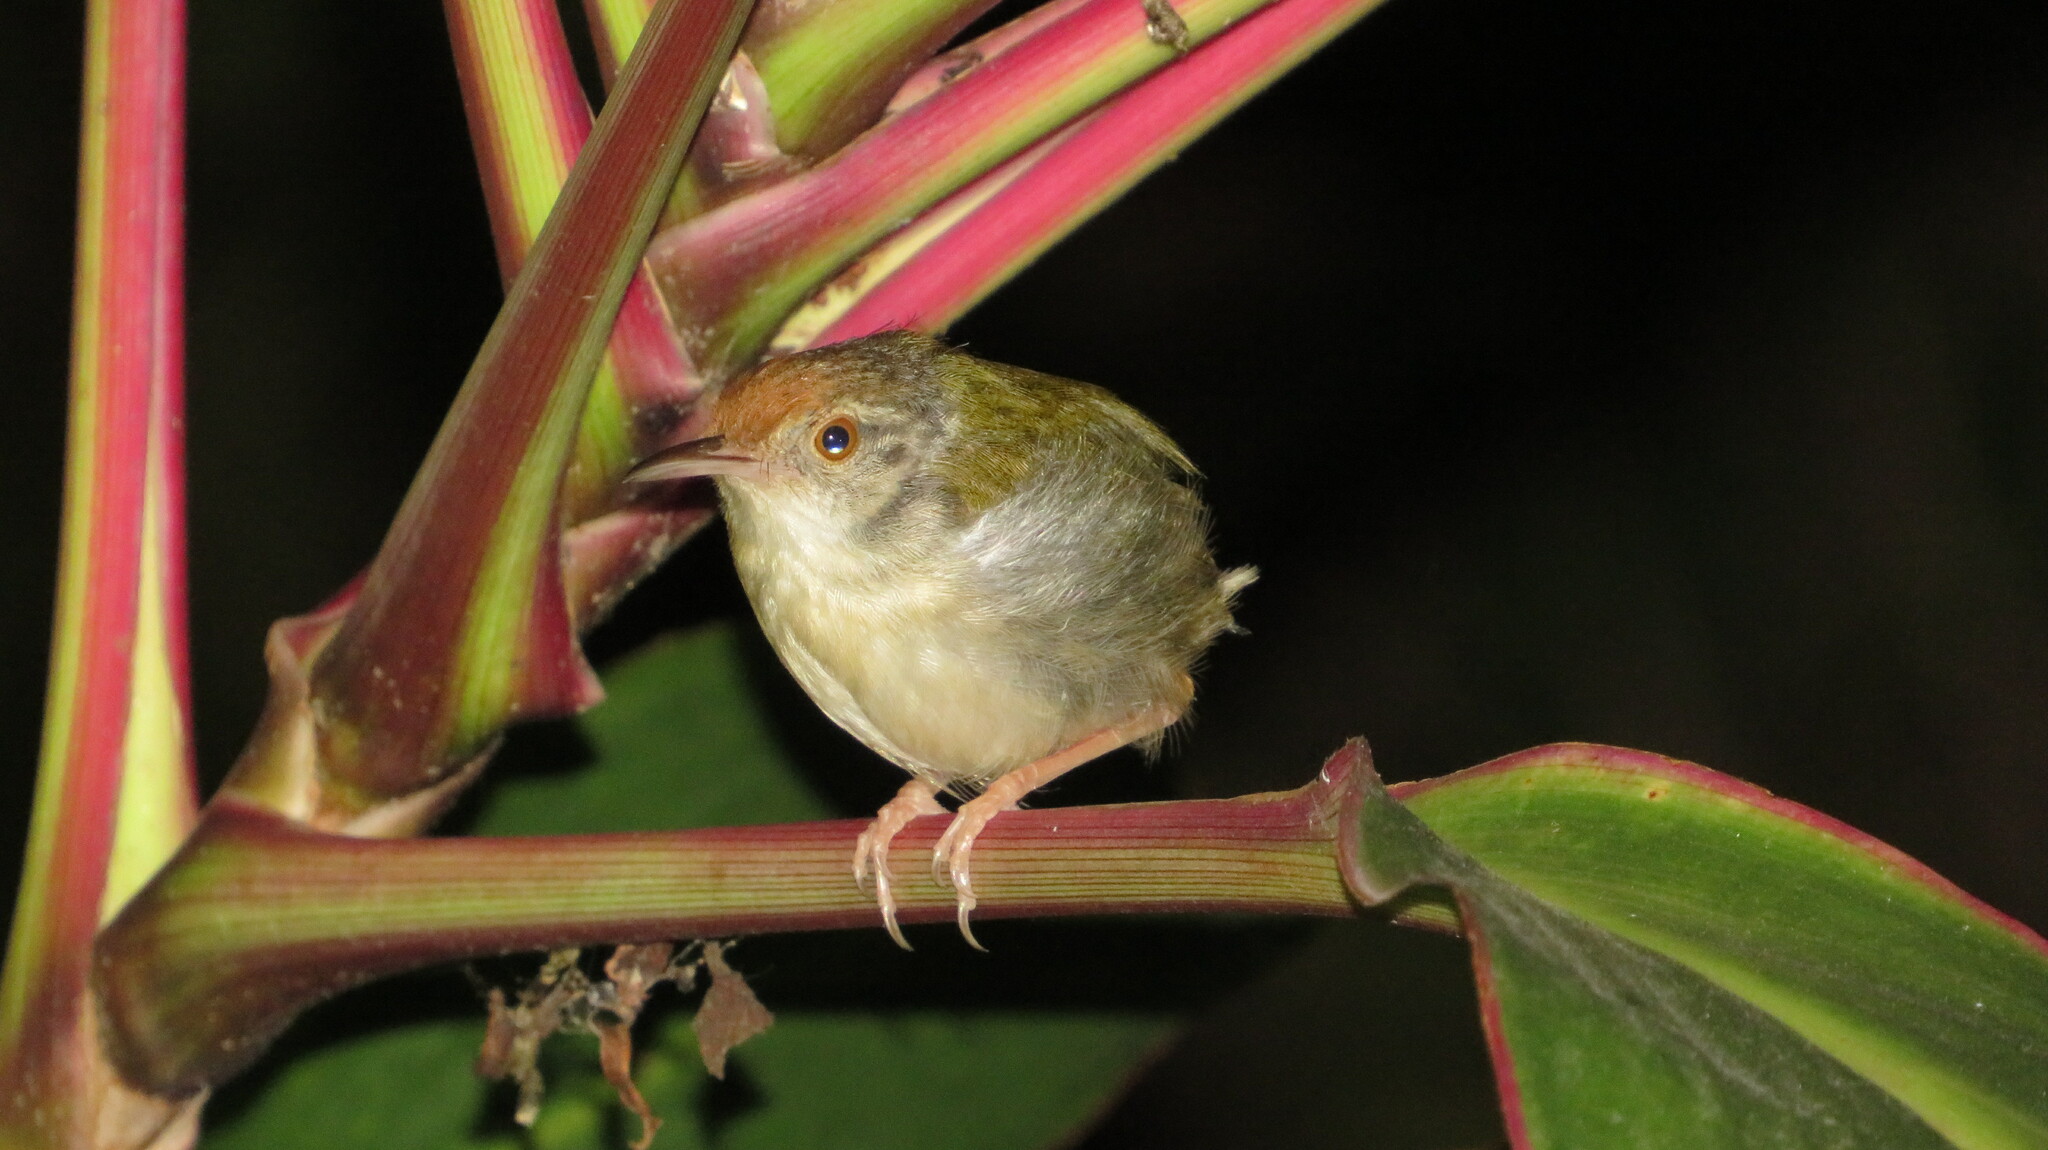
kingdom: Animalia
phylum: Chordata
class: Aves
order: Passeriformes
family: Cisticolidae
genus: Orthotomus
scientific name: Orthotomus sutorius
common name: Common tailorbird
